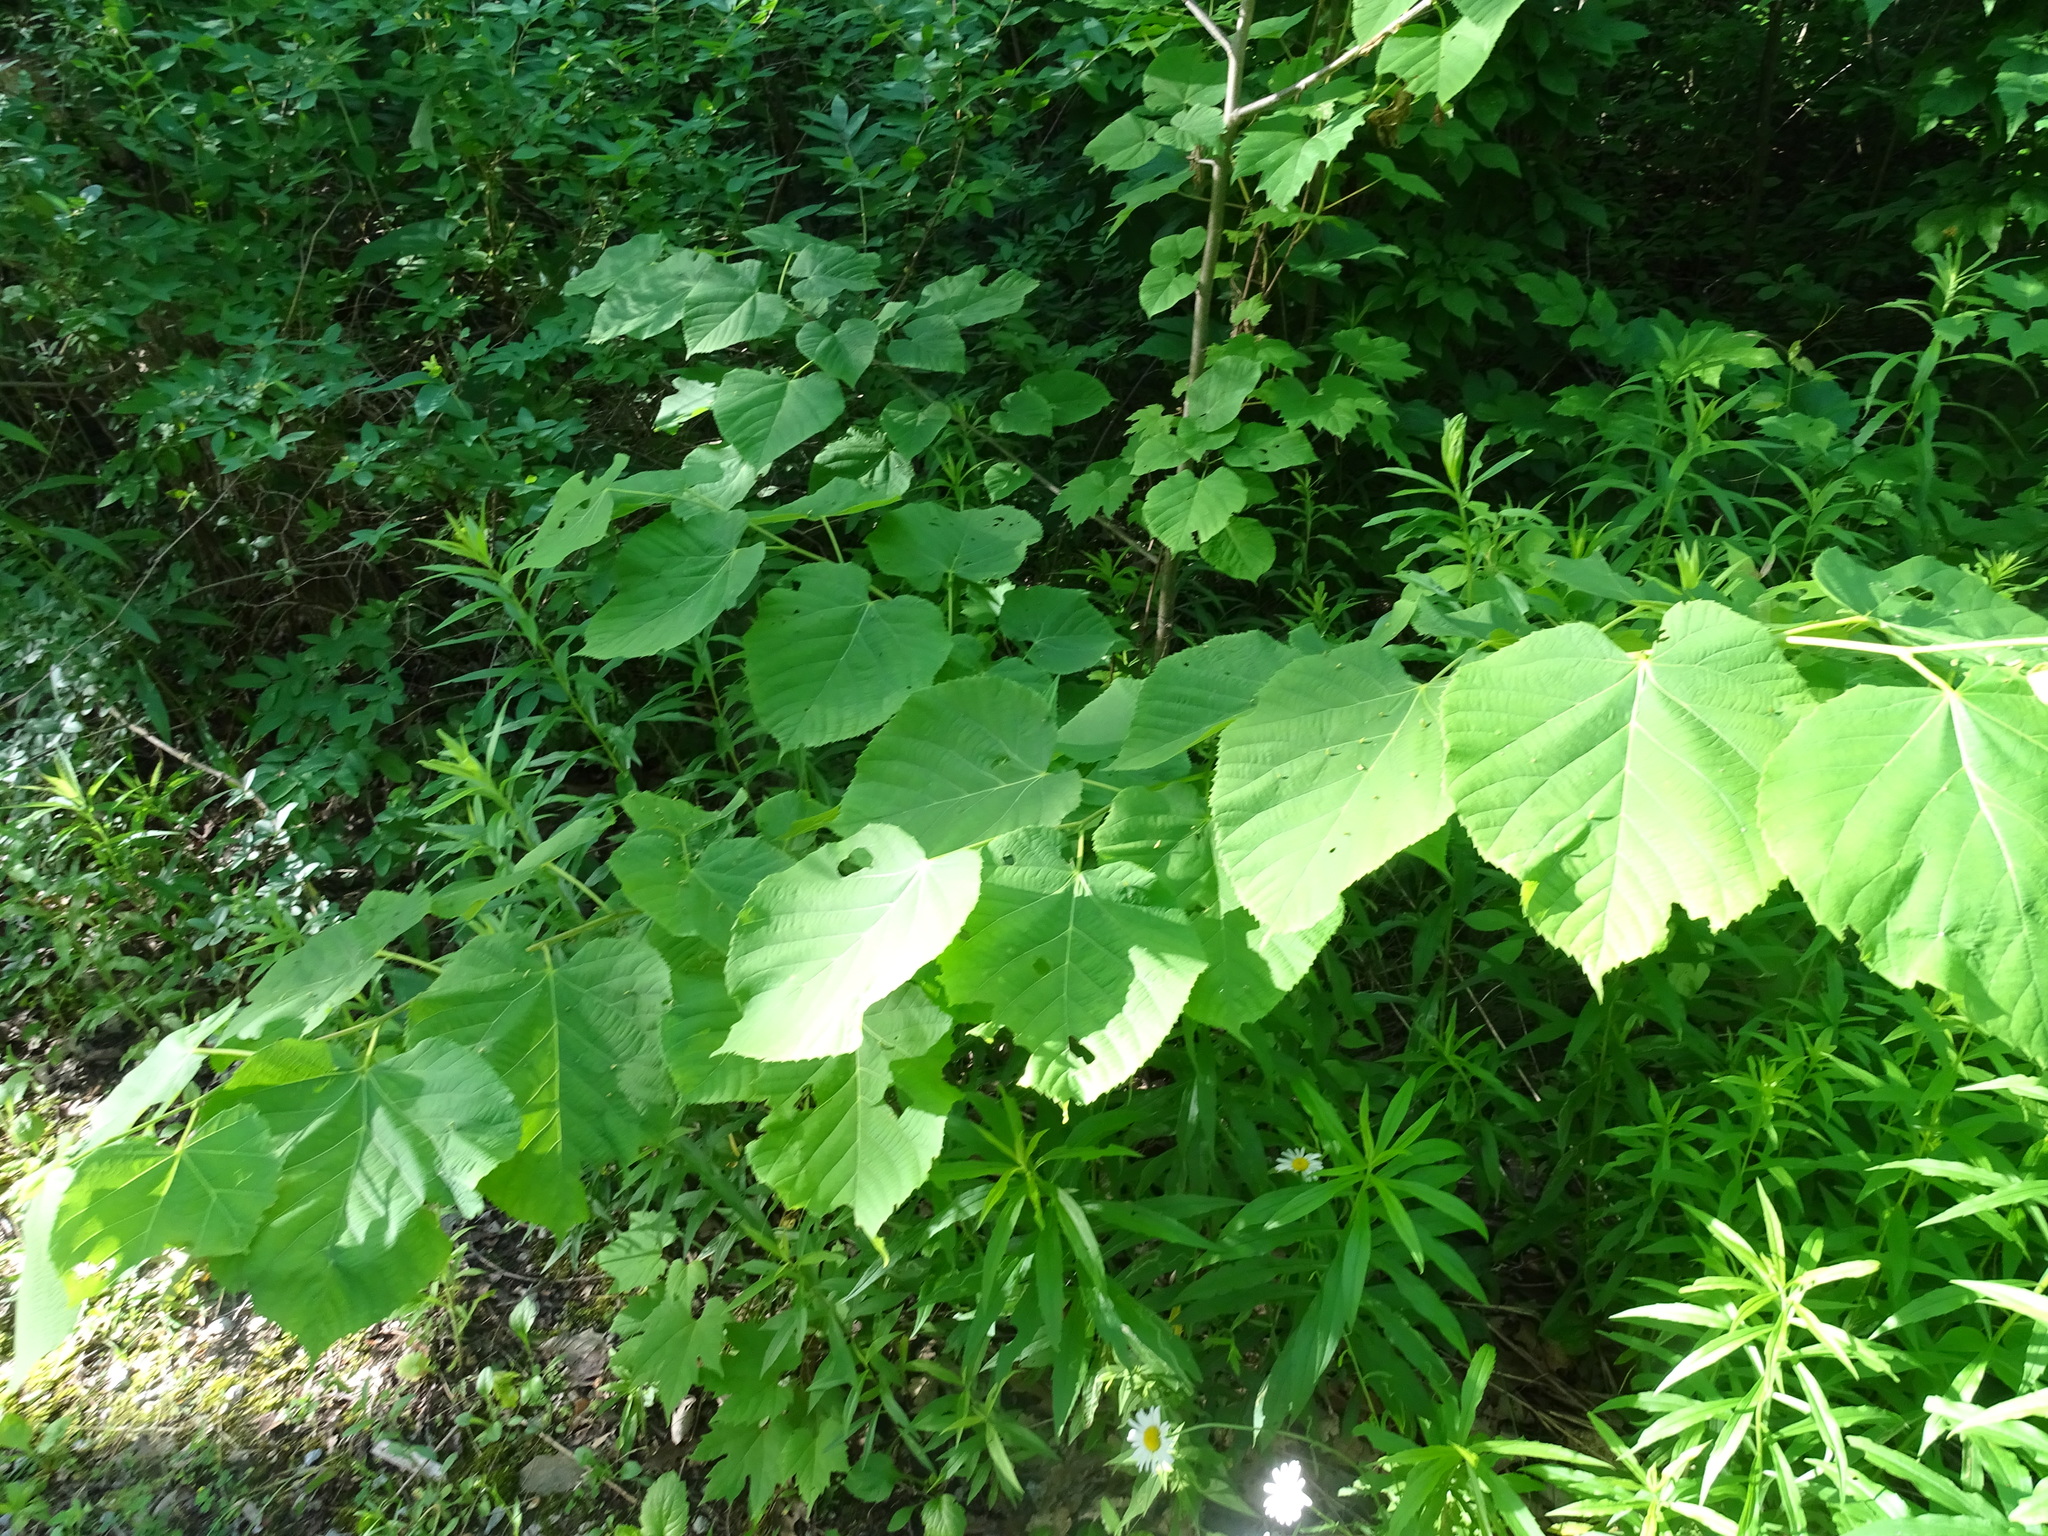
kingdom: Plantae
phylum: Tracheophyta
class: Magnoliopsida
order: Malvales
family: Malvaceae
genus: Tilia
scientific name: Tilia americana
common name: Basswood
